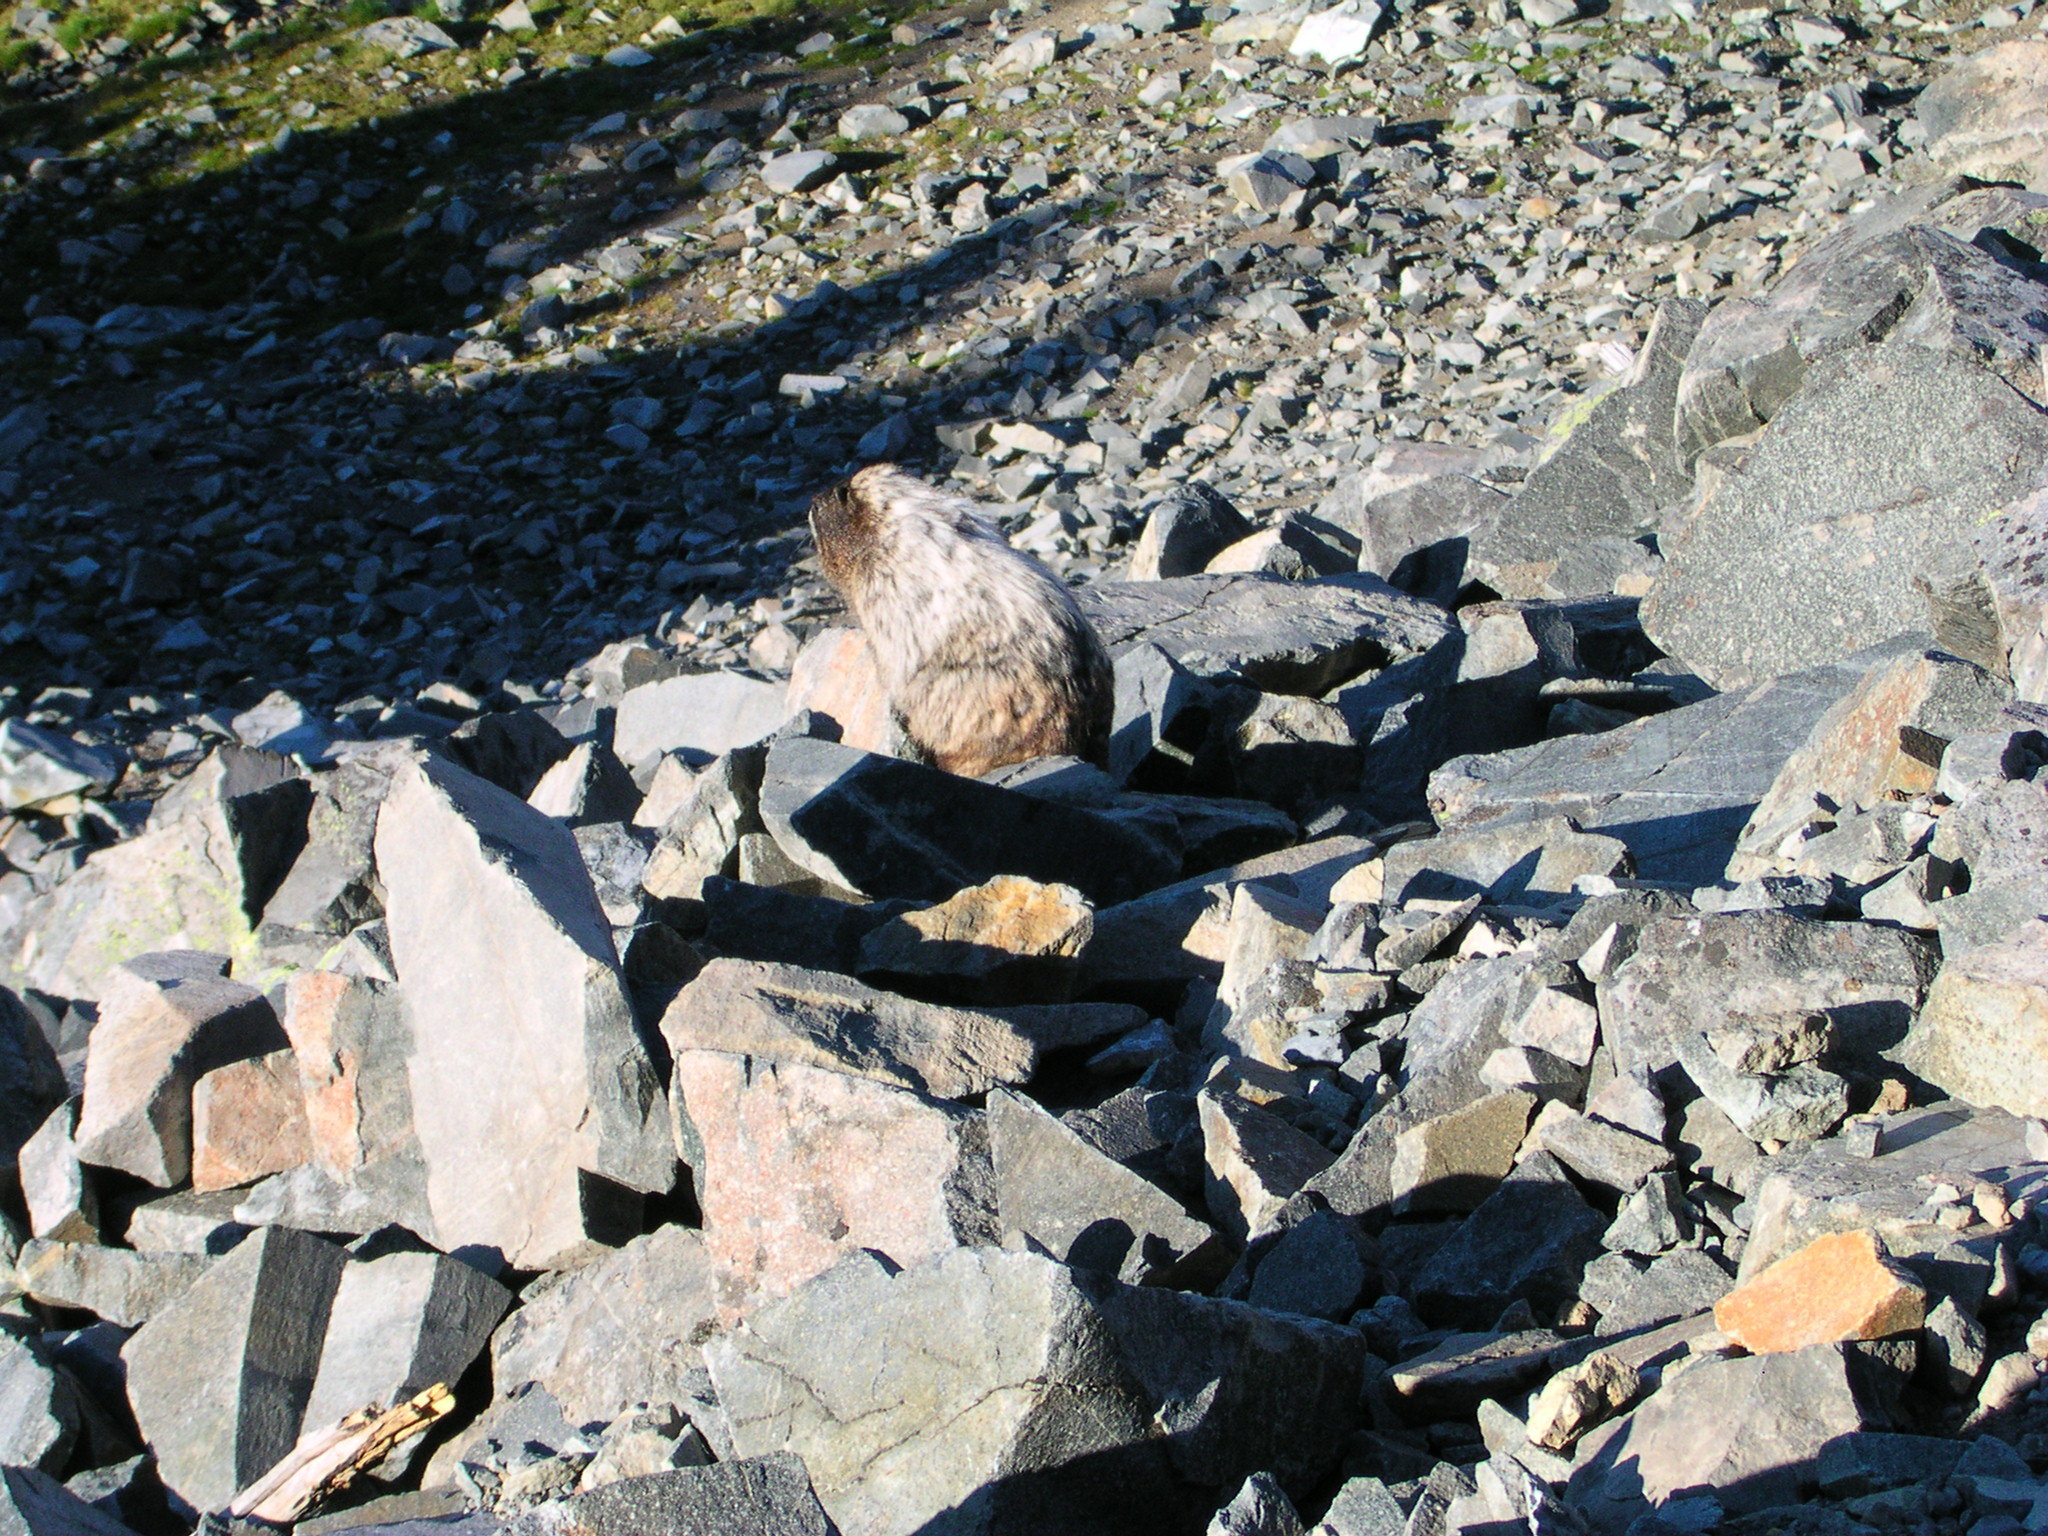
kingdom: Animalia
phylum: Chordata
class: Mammalia
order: Rodentia
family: Sciuridae
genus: Marmota
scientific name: Marmota caligata
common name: Hoary marmot
